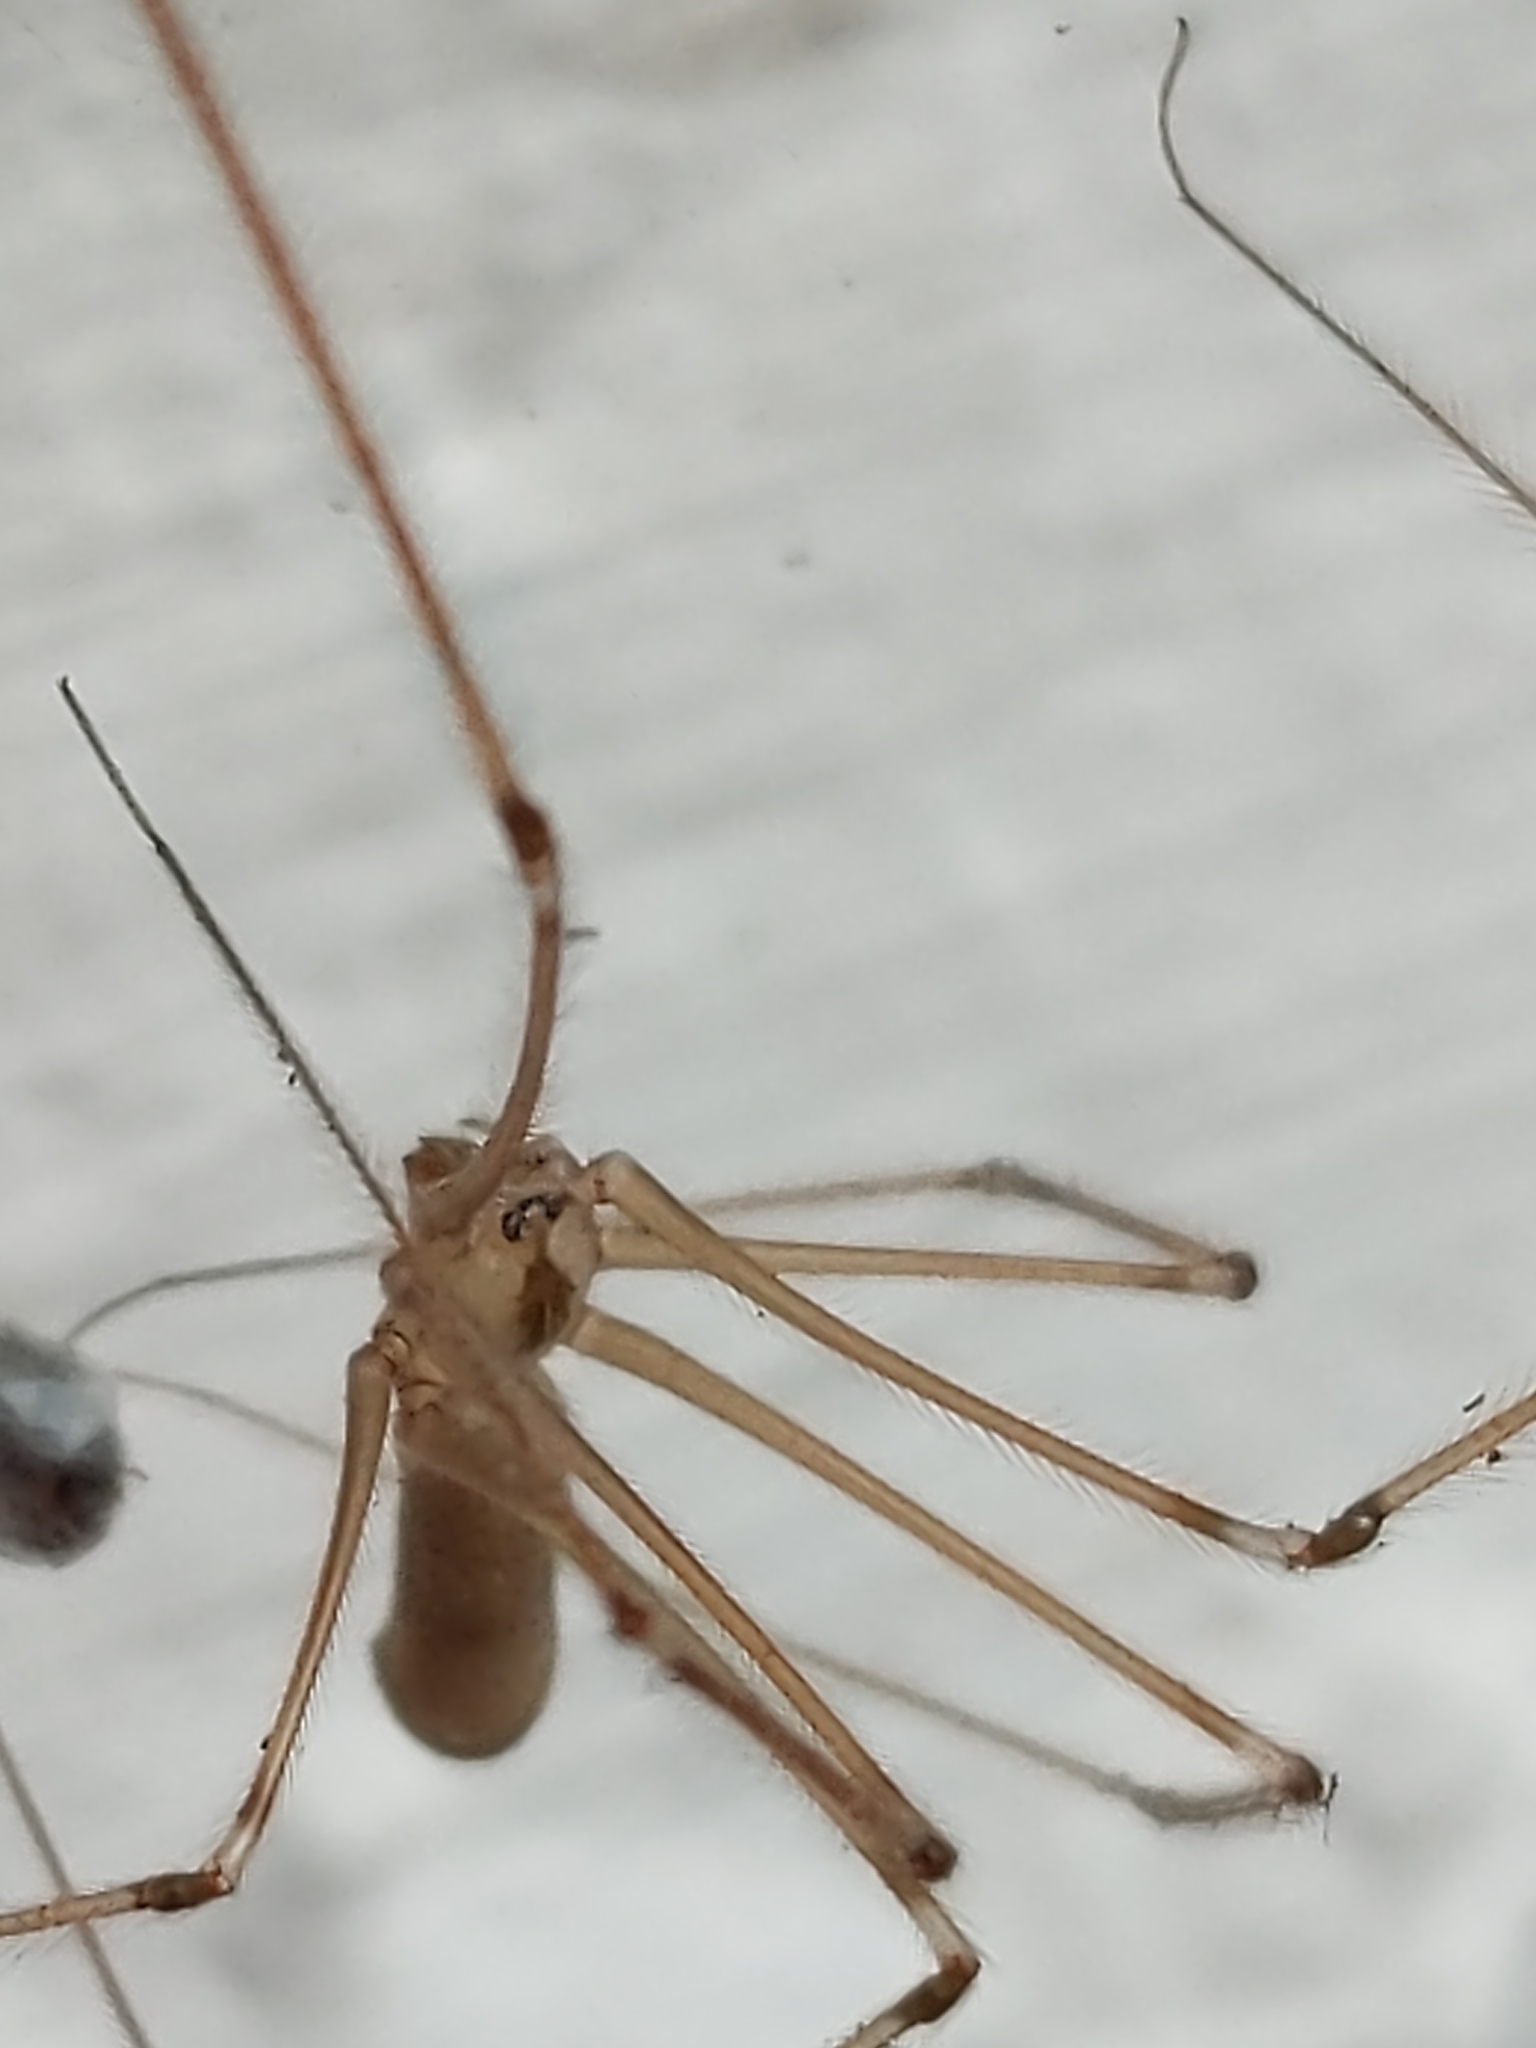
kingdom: Animalia
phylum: Arthropoda
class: Arachnida
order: Araneae
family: Pholcidae
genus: Pholcus
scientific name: Pholcus phalangioides
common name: Longbodied cellar spider
